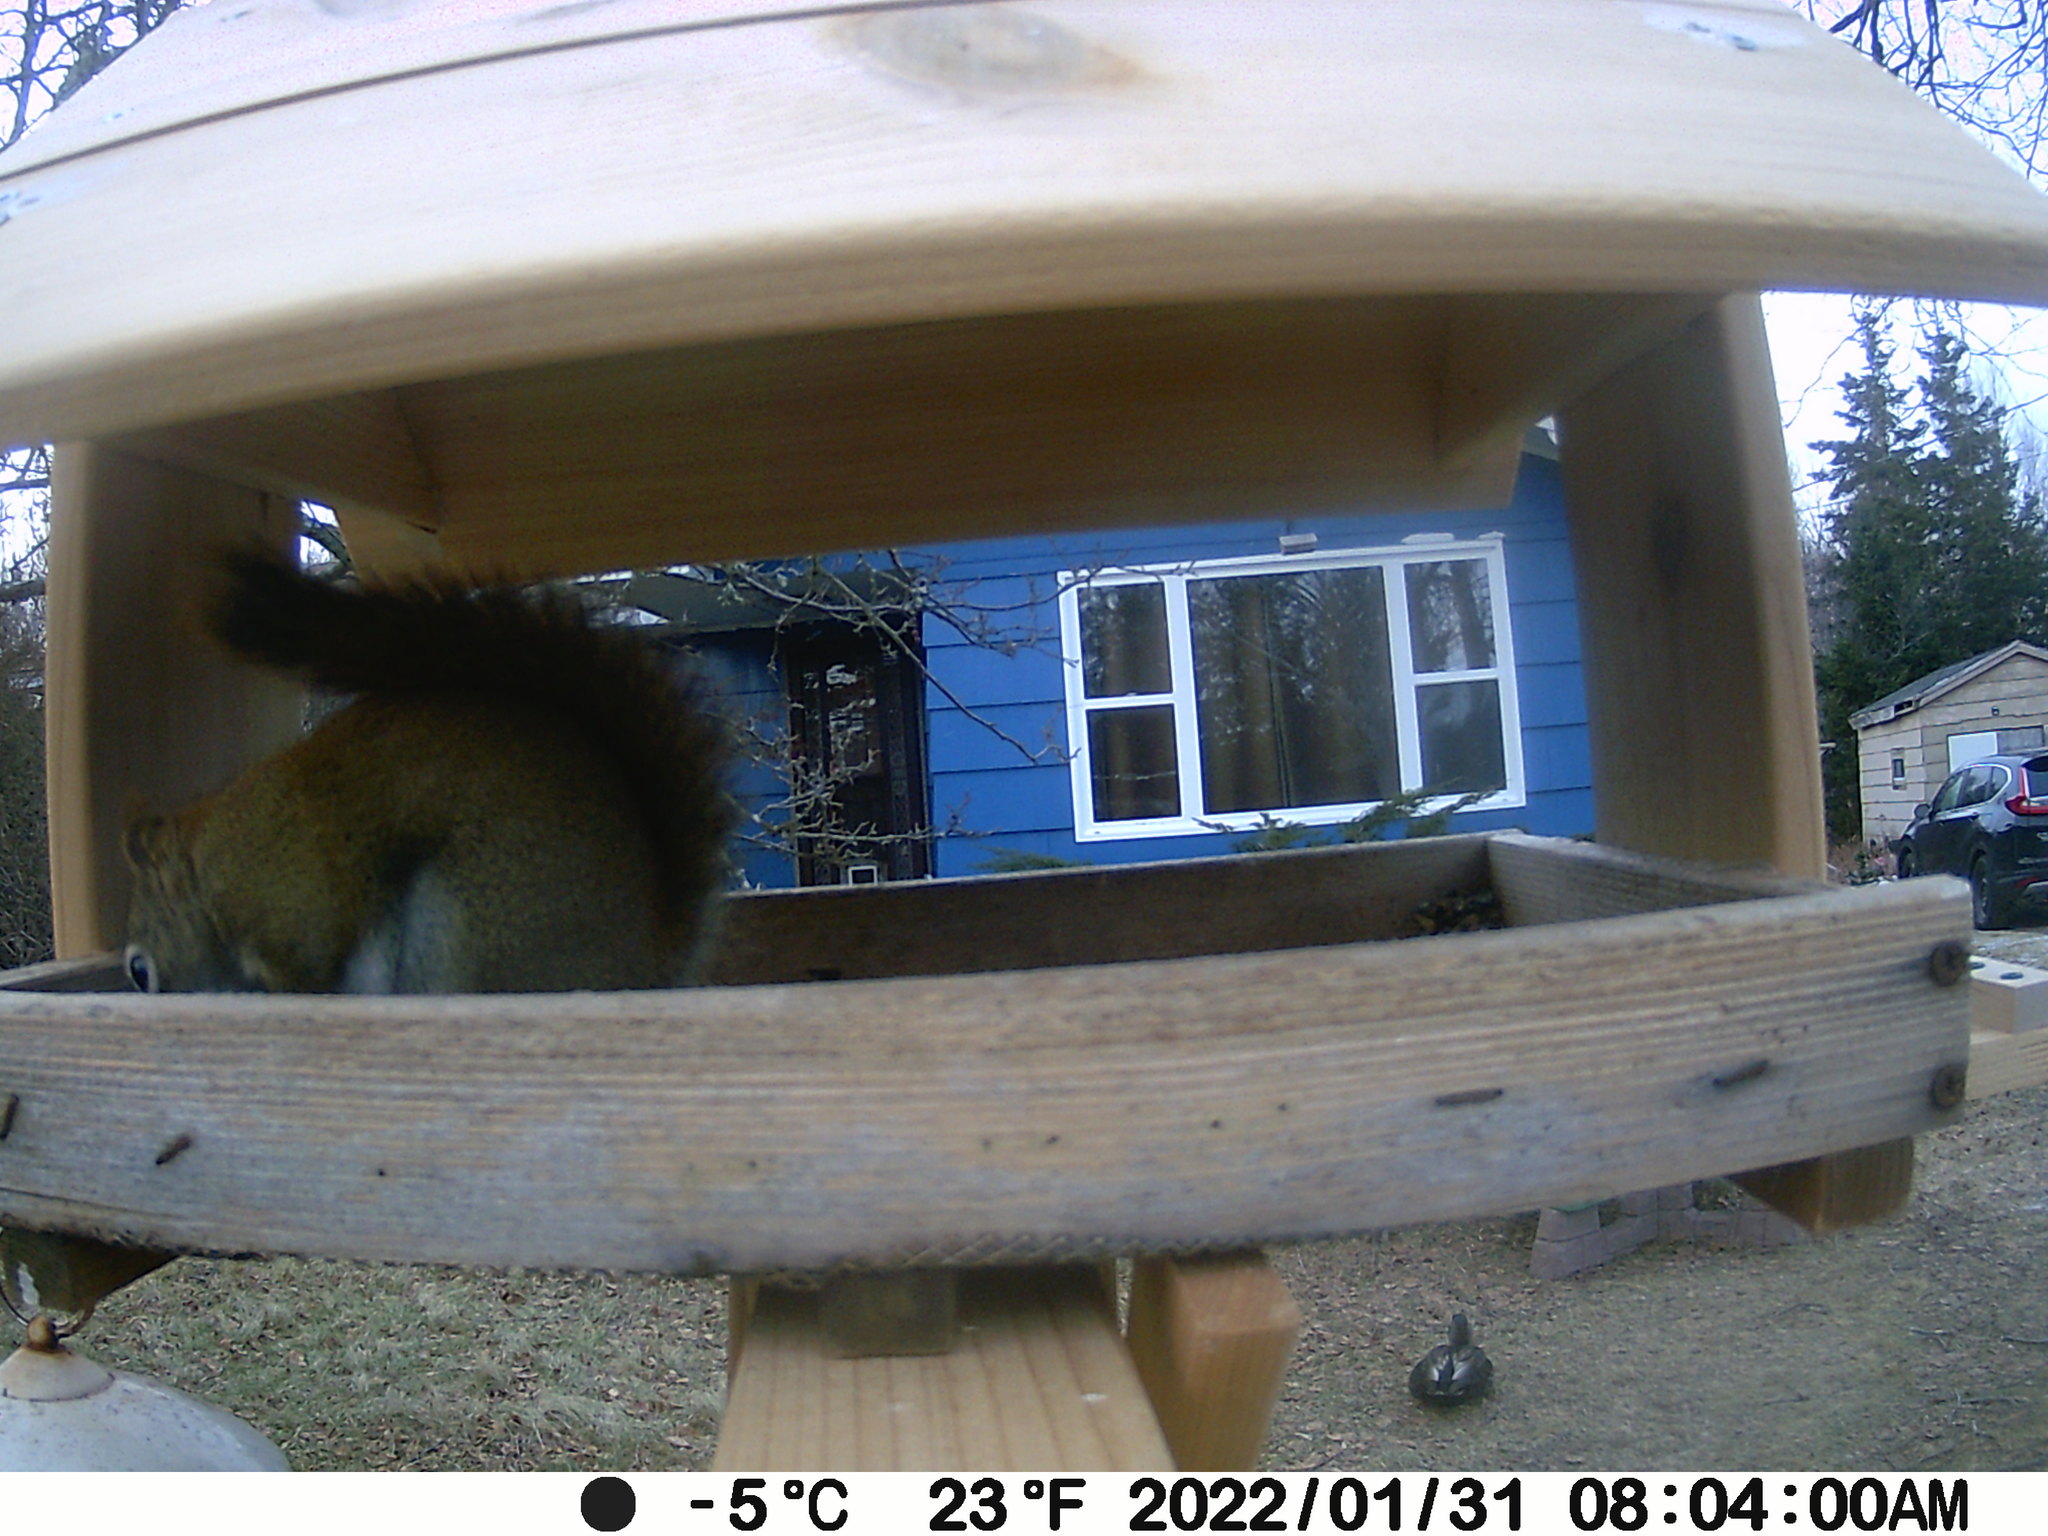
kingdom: Animalia
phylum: Chordata
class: Aves
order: Anseriformes
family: Anatidae
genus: Anas
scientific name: Anas rubripes
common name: American black duck
